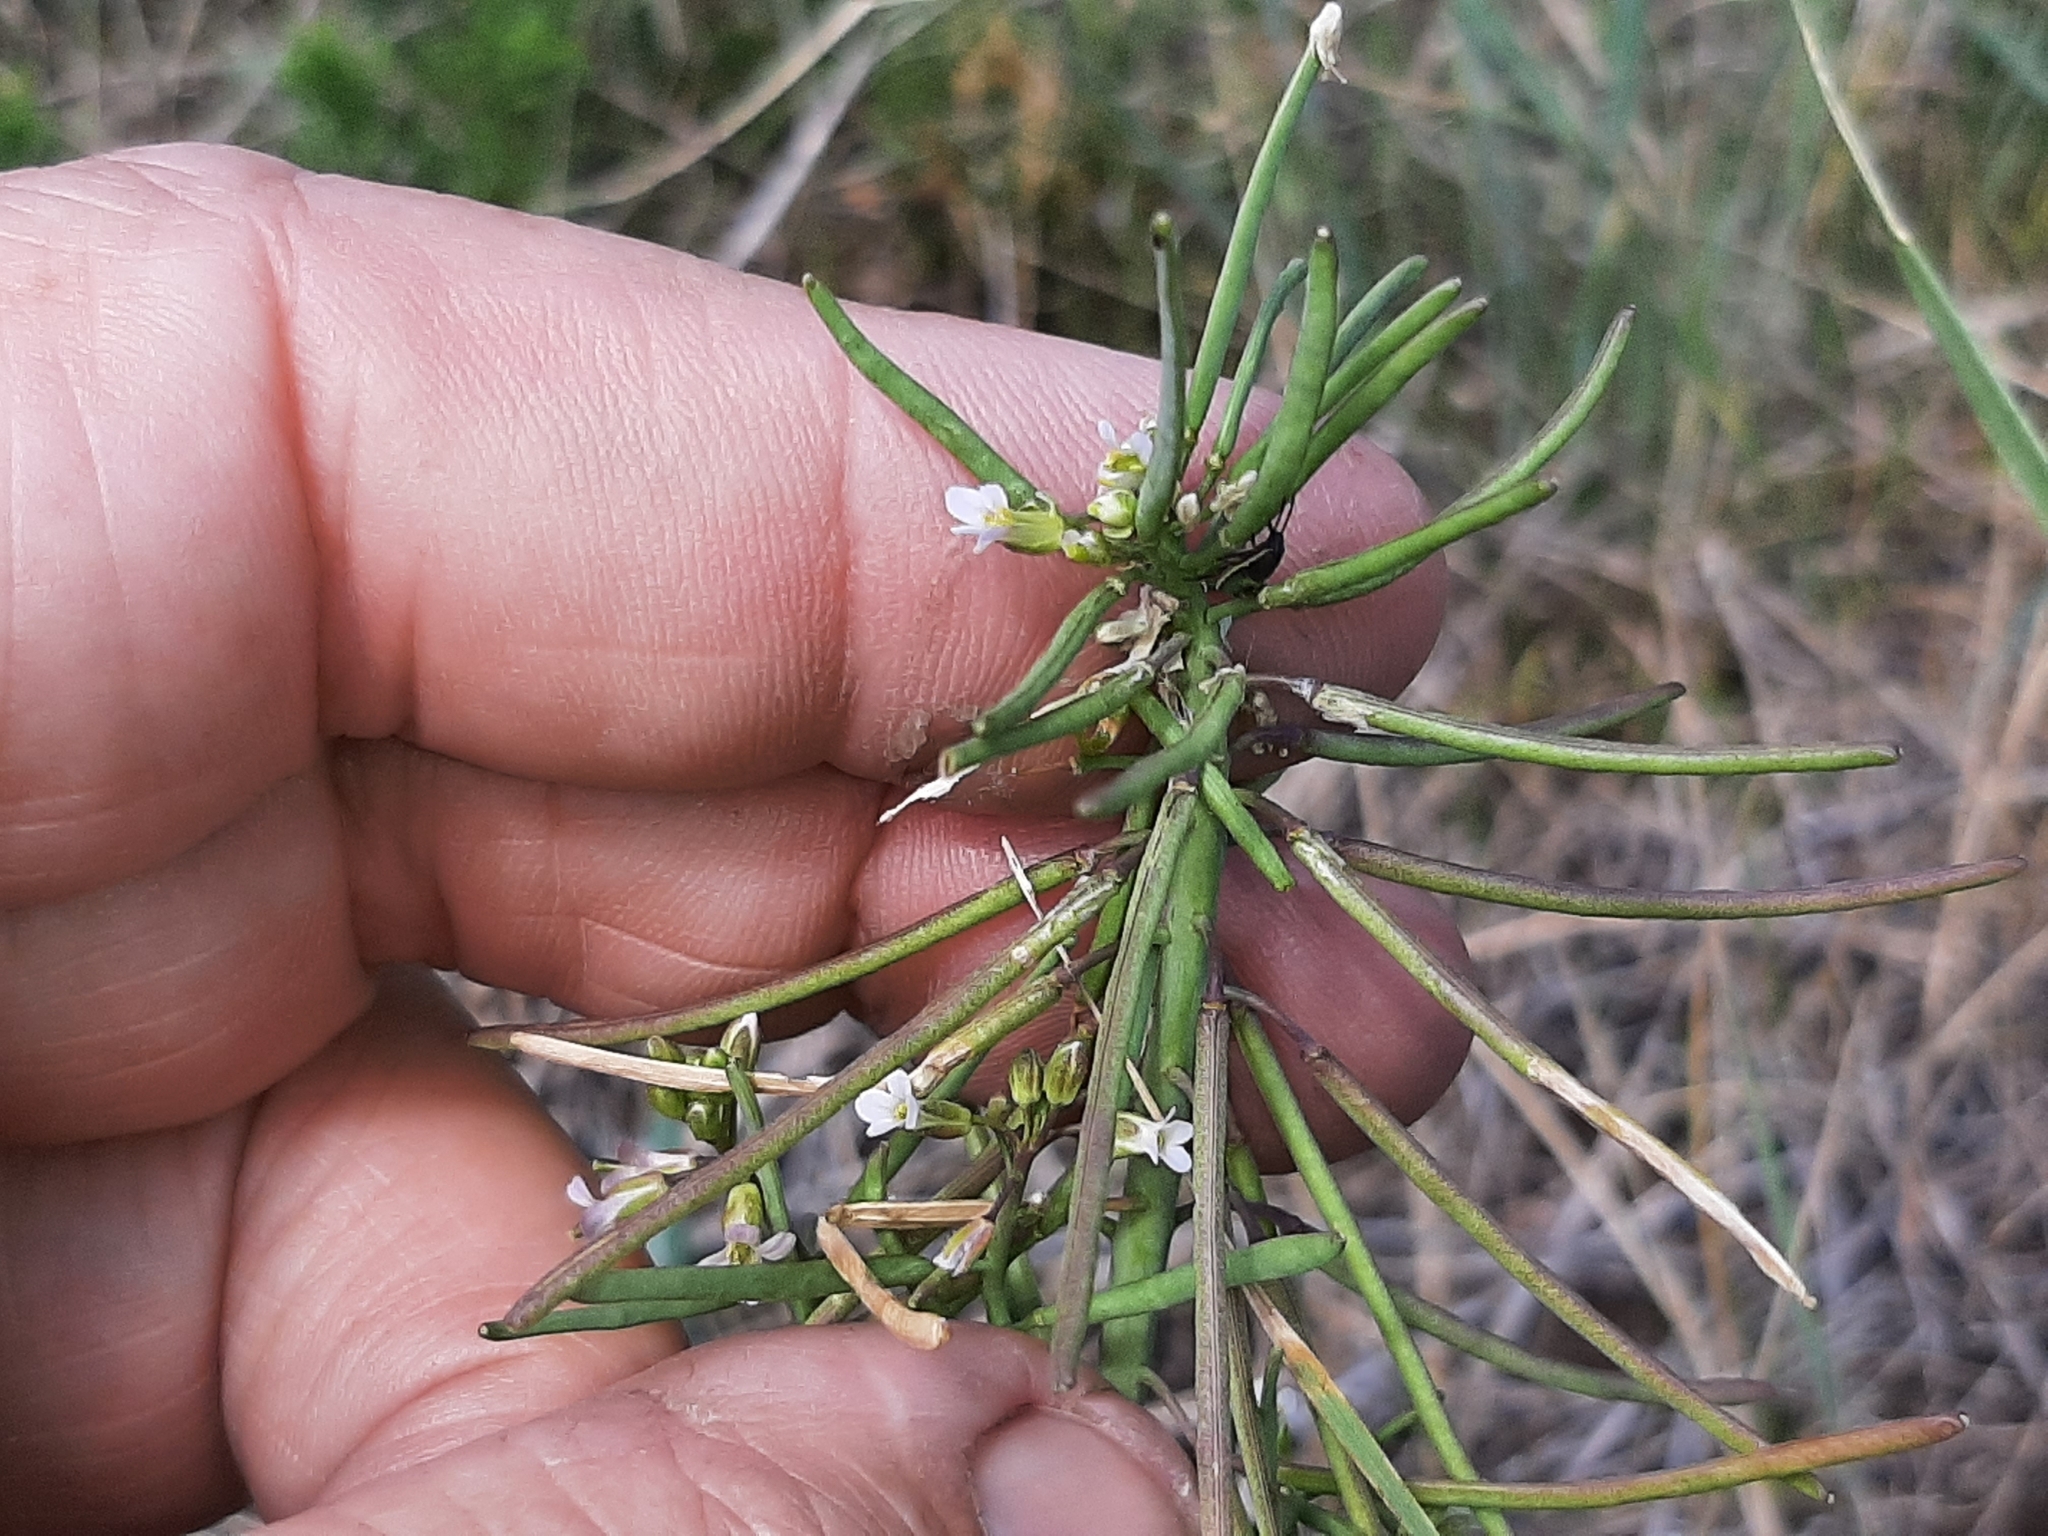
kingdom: Plantae
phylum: Tracheophyta
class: Magnoliopsida
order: Brassicales
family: Brassicaceae
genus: Boechera
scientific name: Boechera grahamii
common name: Graham's rockcress
